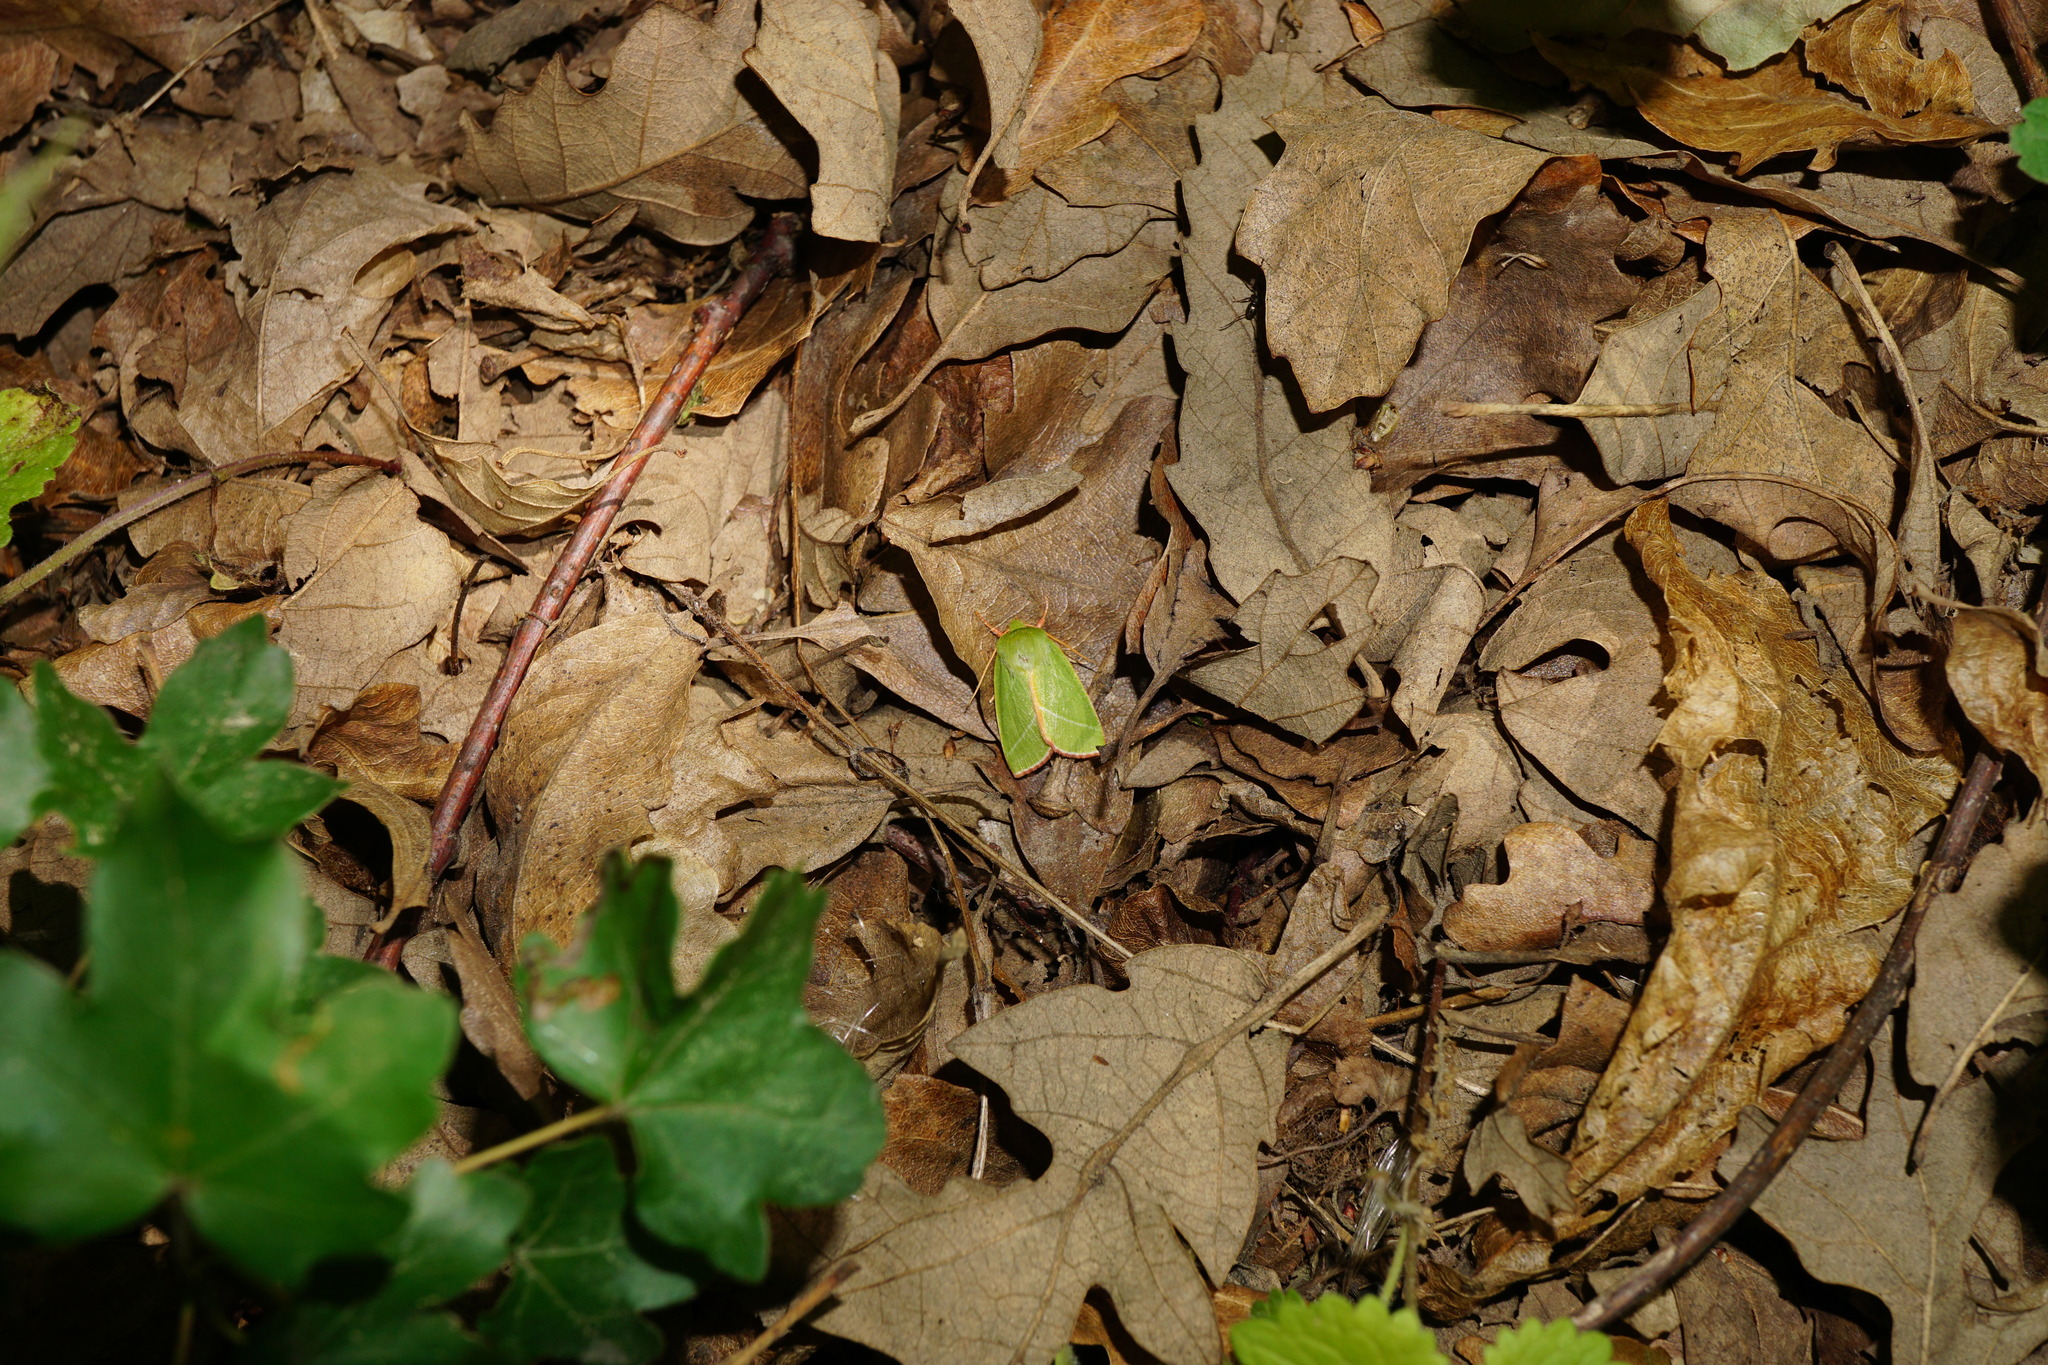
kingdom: Animalia
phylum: Arthropoda
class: Insecta
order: Lepidoptera
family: Nolidae
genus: Pseudoips
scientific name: Pseudoips prasinana
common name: Green silver-lines
